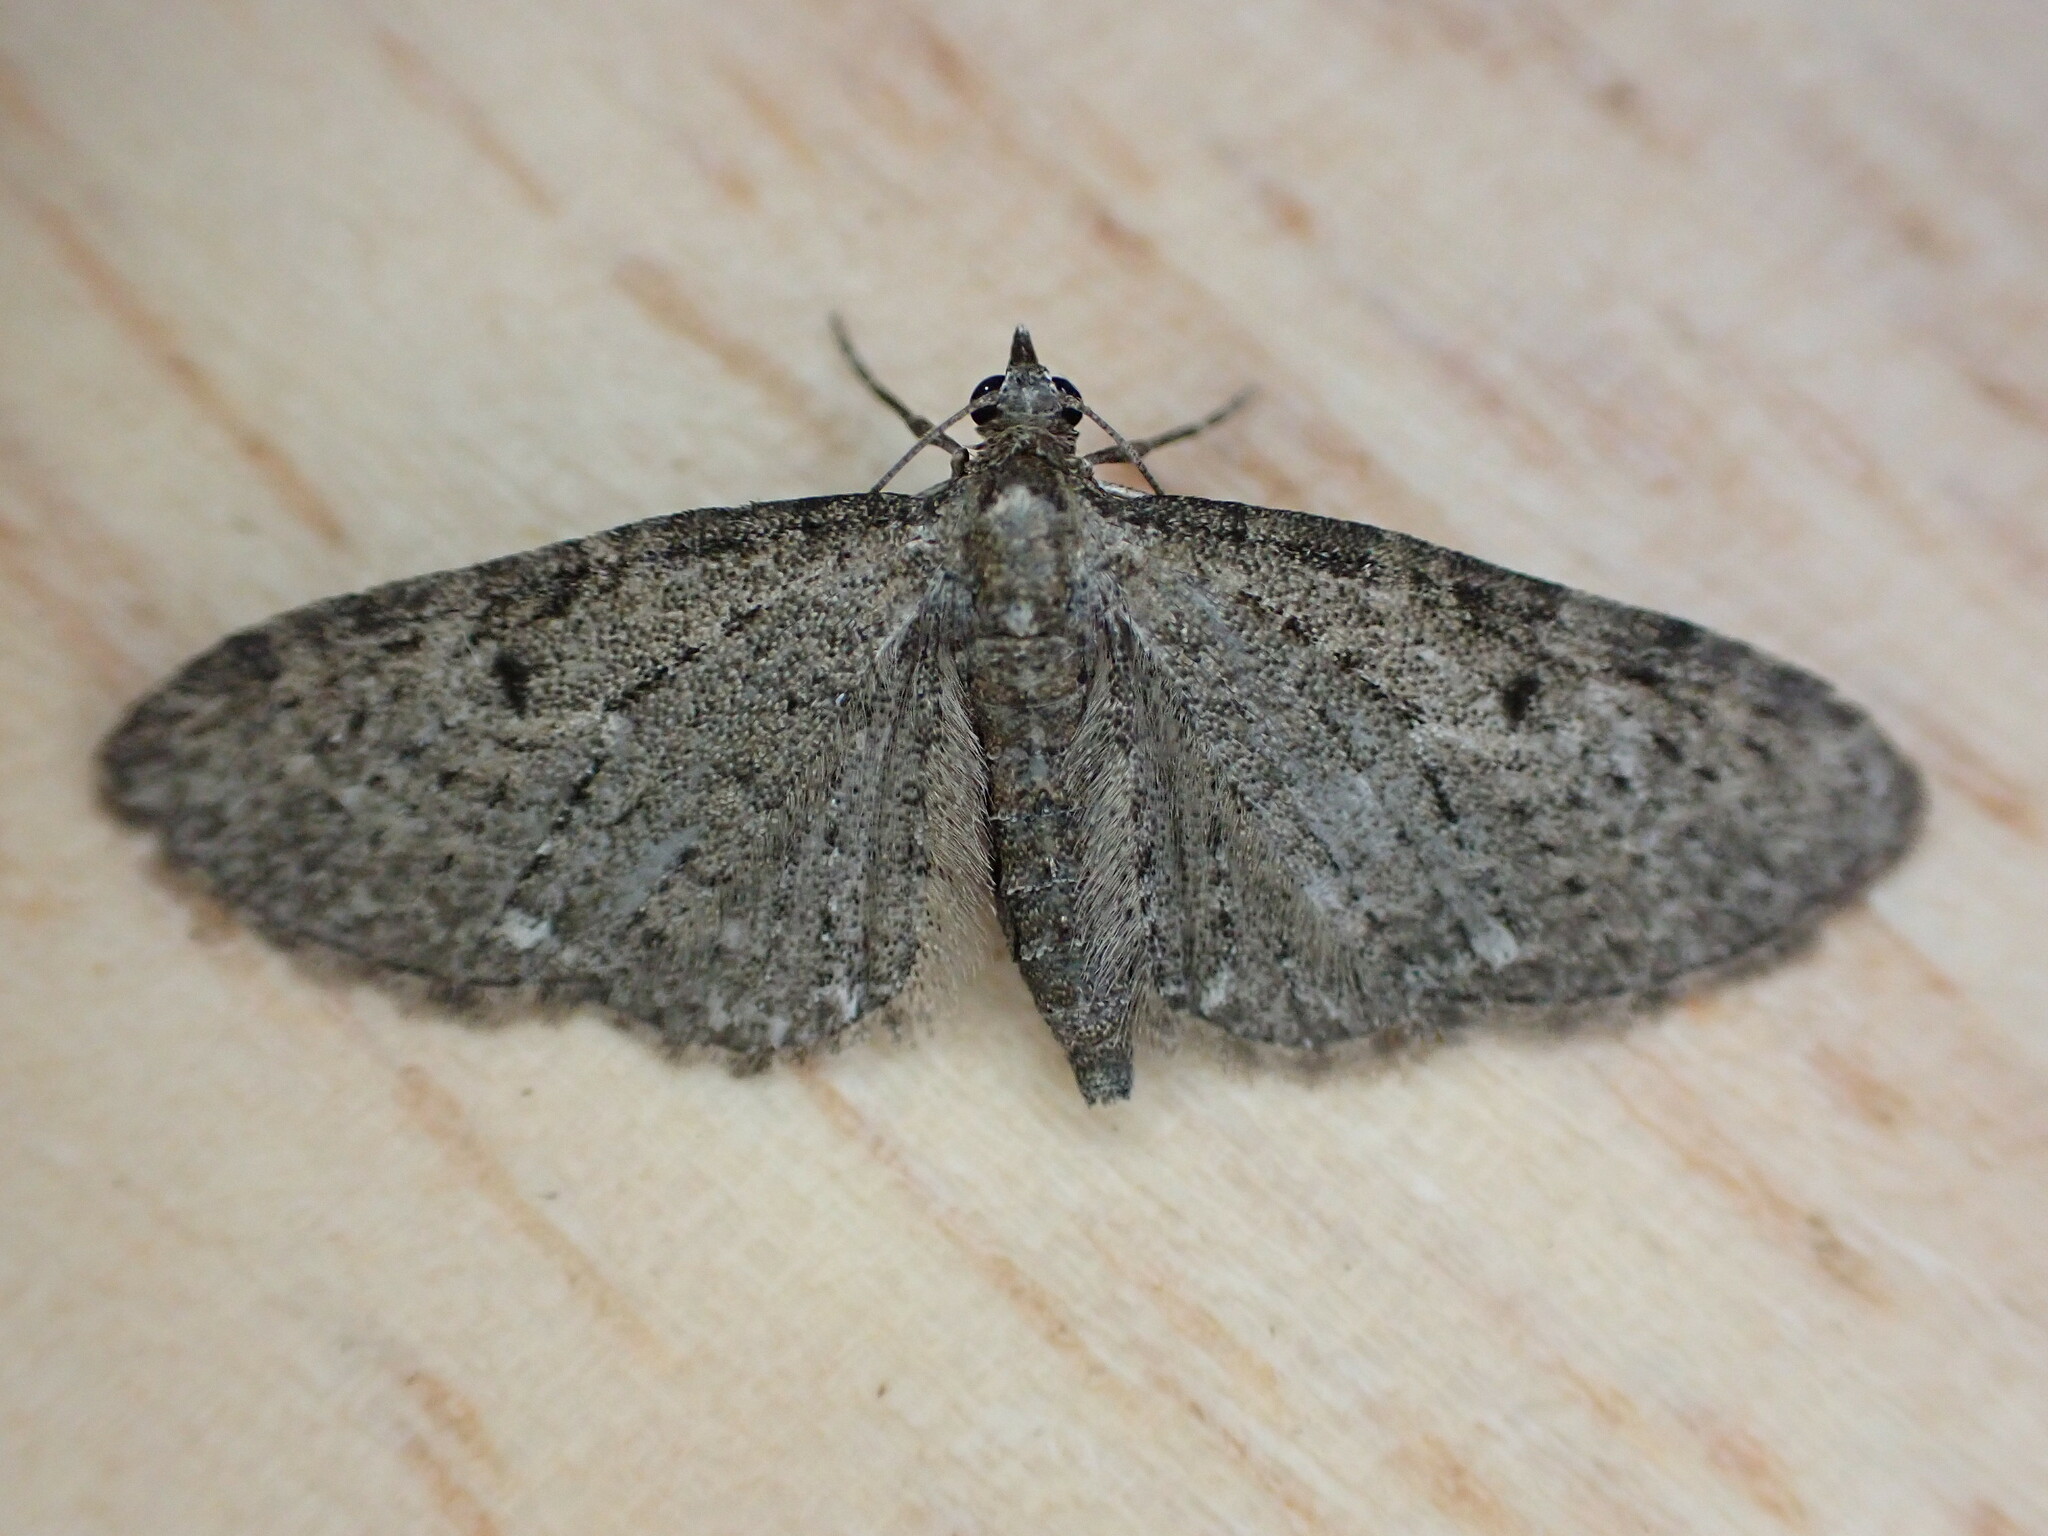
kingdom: Animalia
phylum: Arthropoda
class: Insecta
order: Lepidoptera
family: Geometridae
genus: Eupithecia
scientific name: Eupithecia virgaureata
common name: Golden-rod pug
